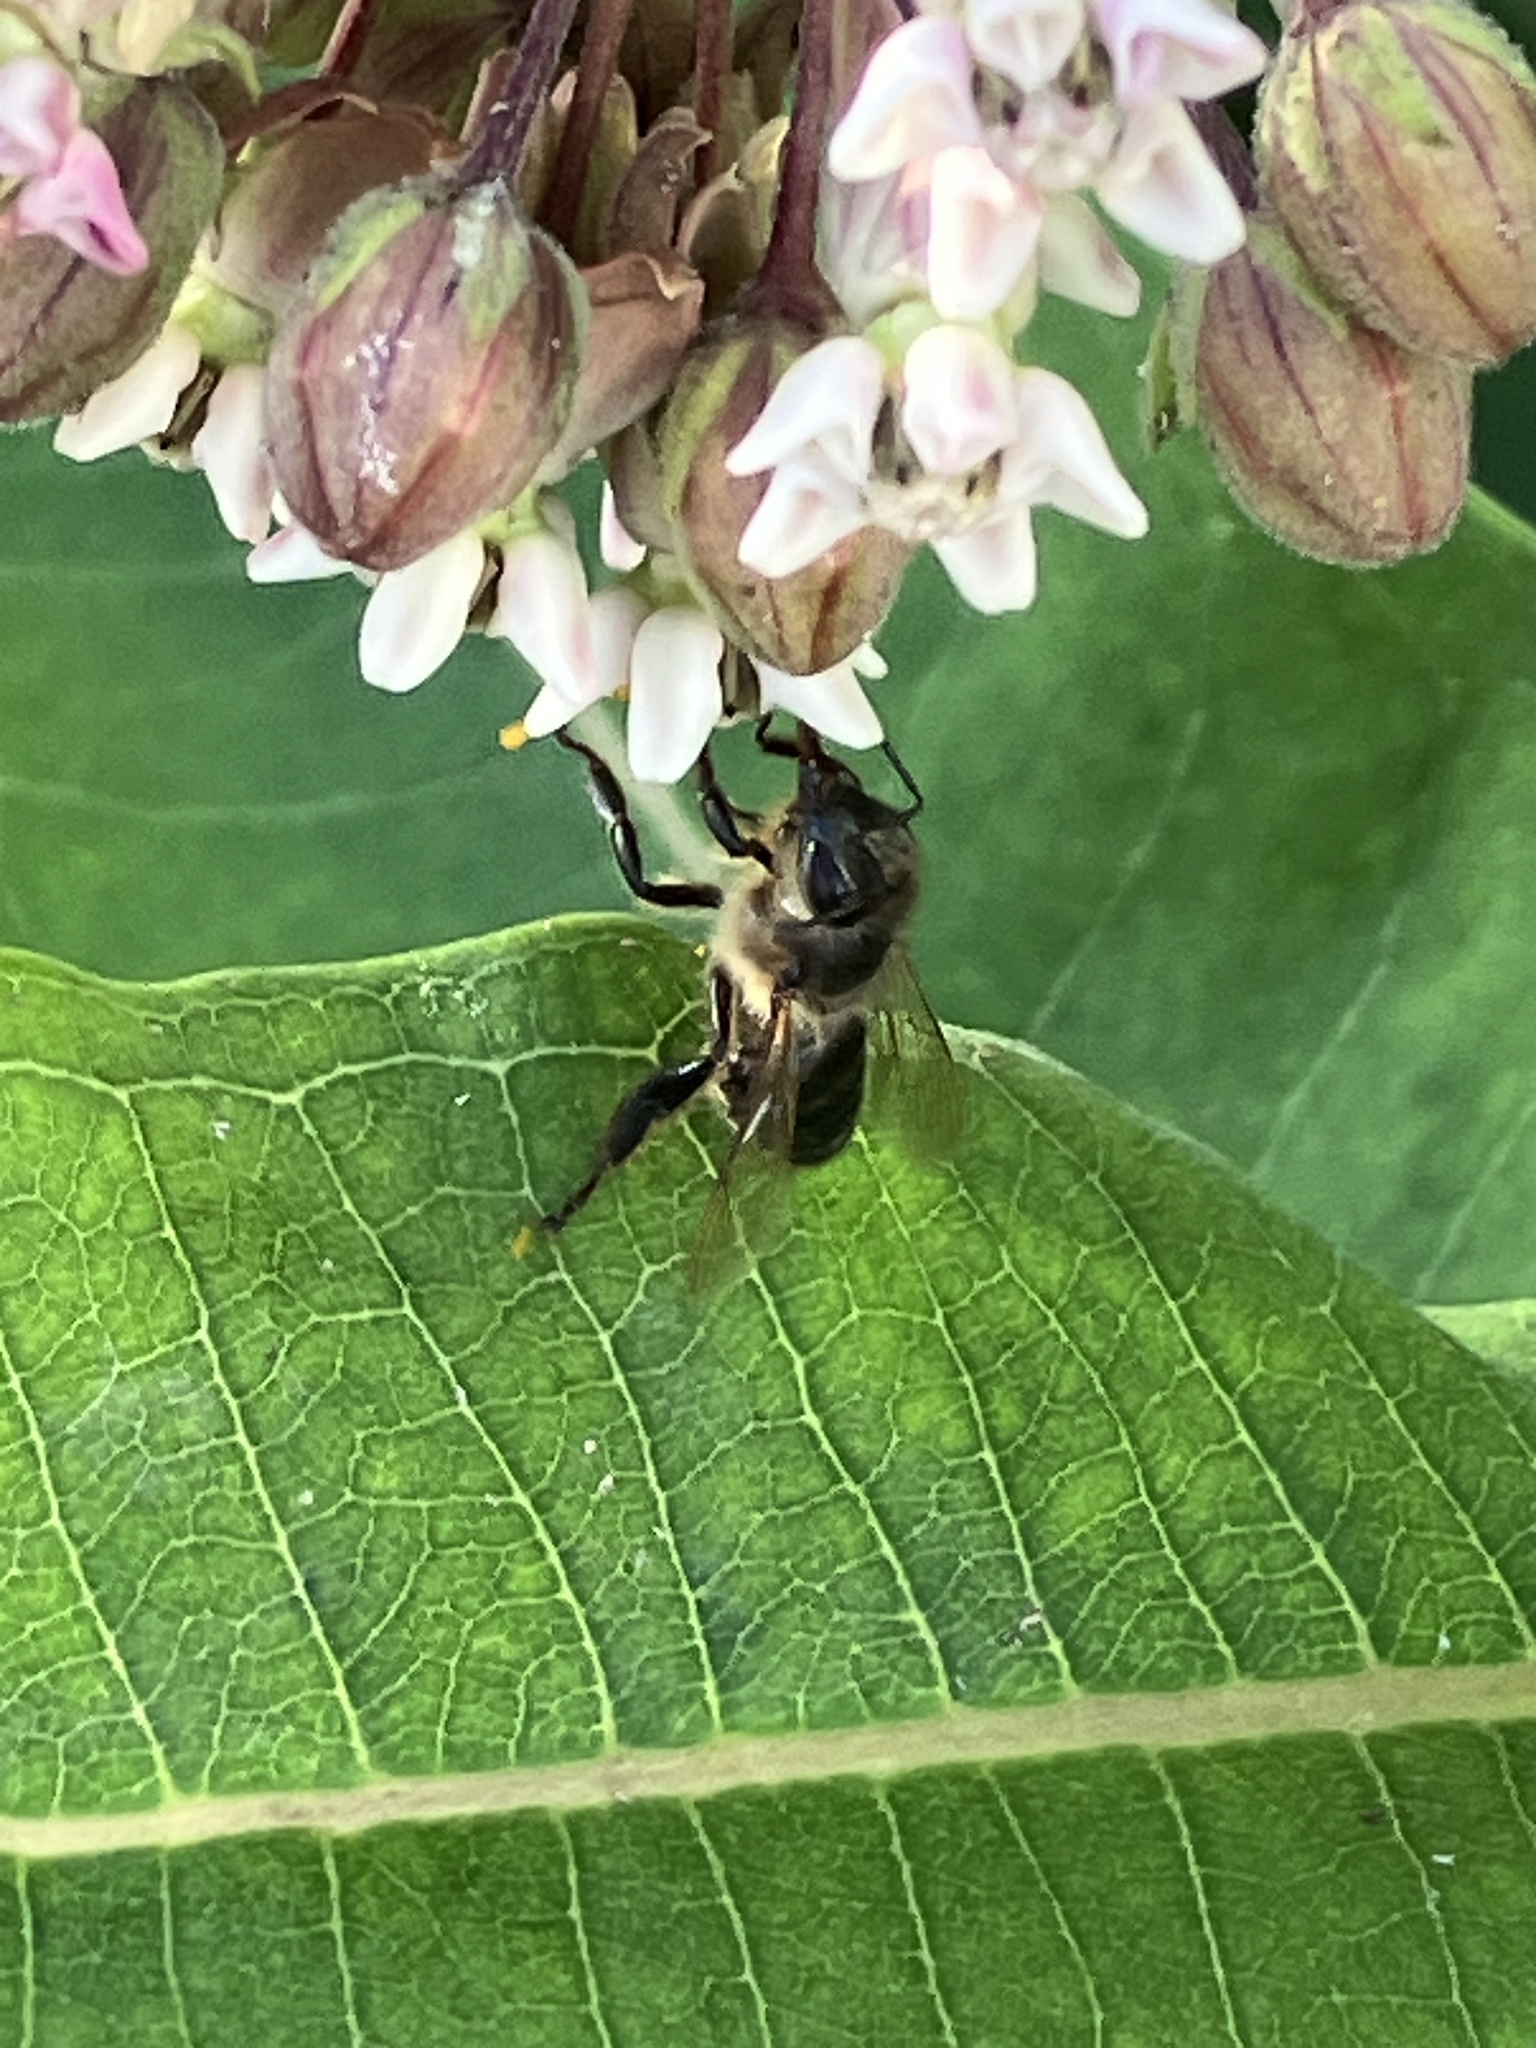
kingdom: Animalia
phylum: Arthropoda
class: Insecta
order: Hymenoptera
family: Apidae
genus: Apis
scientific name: Apis mellifera
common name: Honey bee
